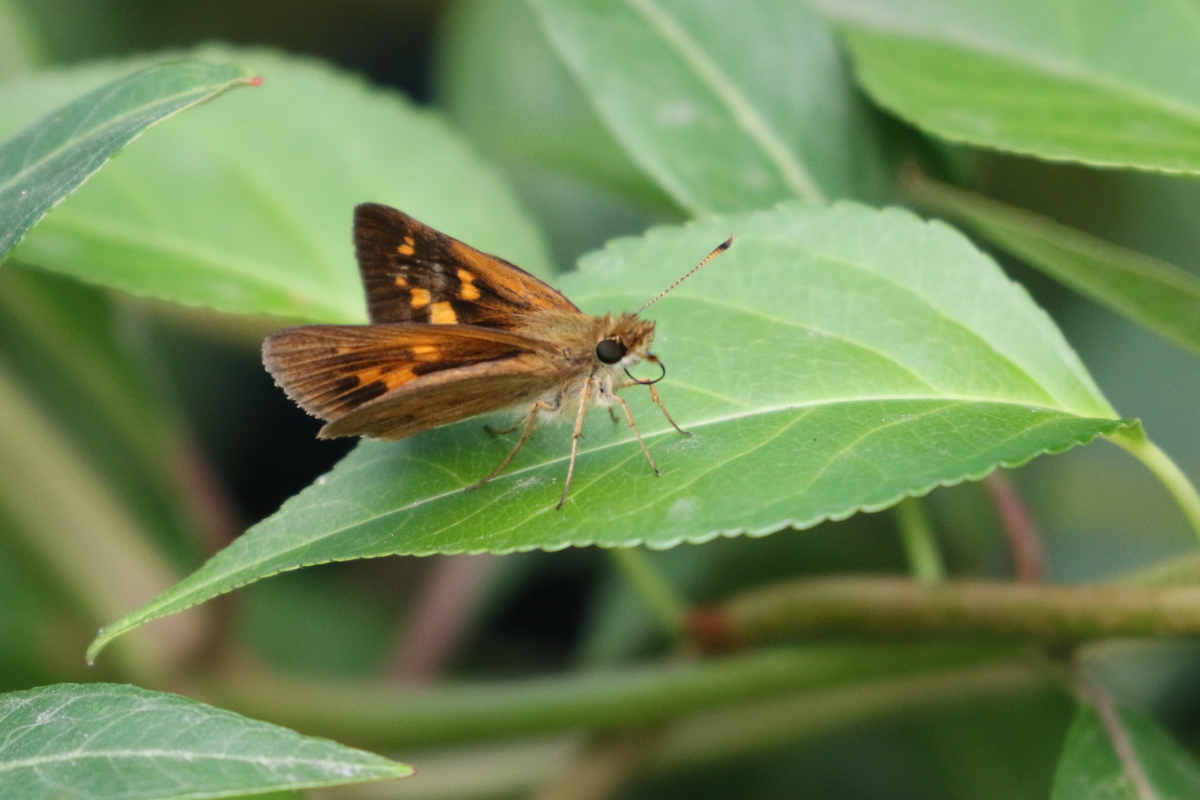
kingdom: Animalia
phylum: Arthropoda
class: Insecta
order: Lepidoptera
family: Hesperiidae
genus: Poanes
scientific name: Poanes viator
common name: Broad-winged skipper
